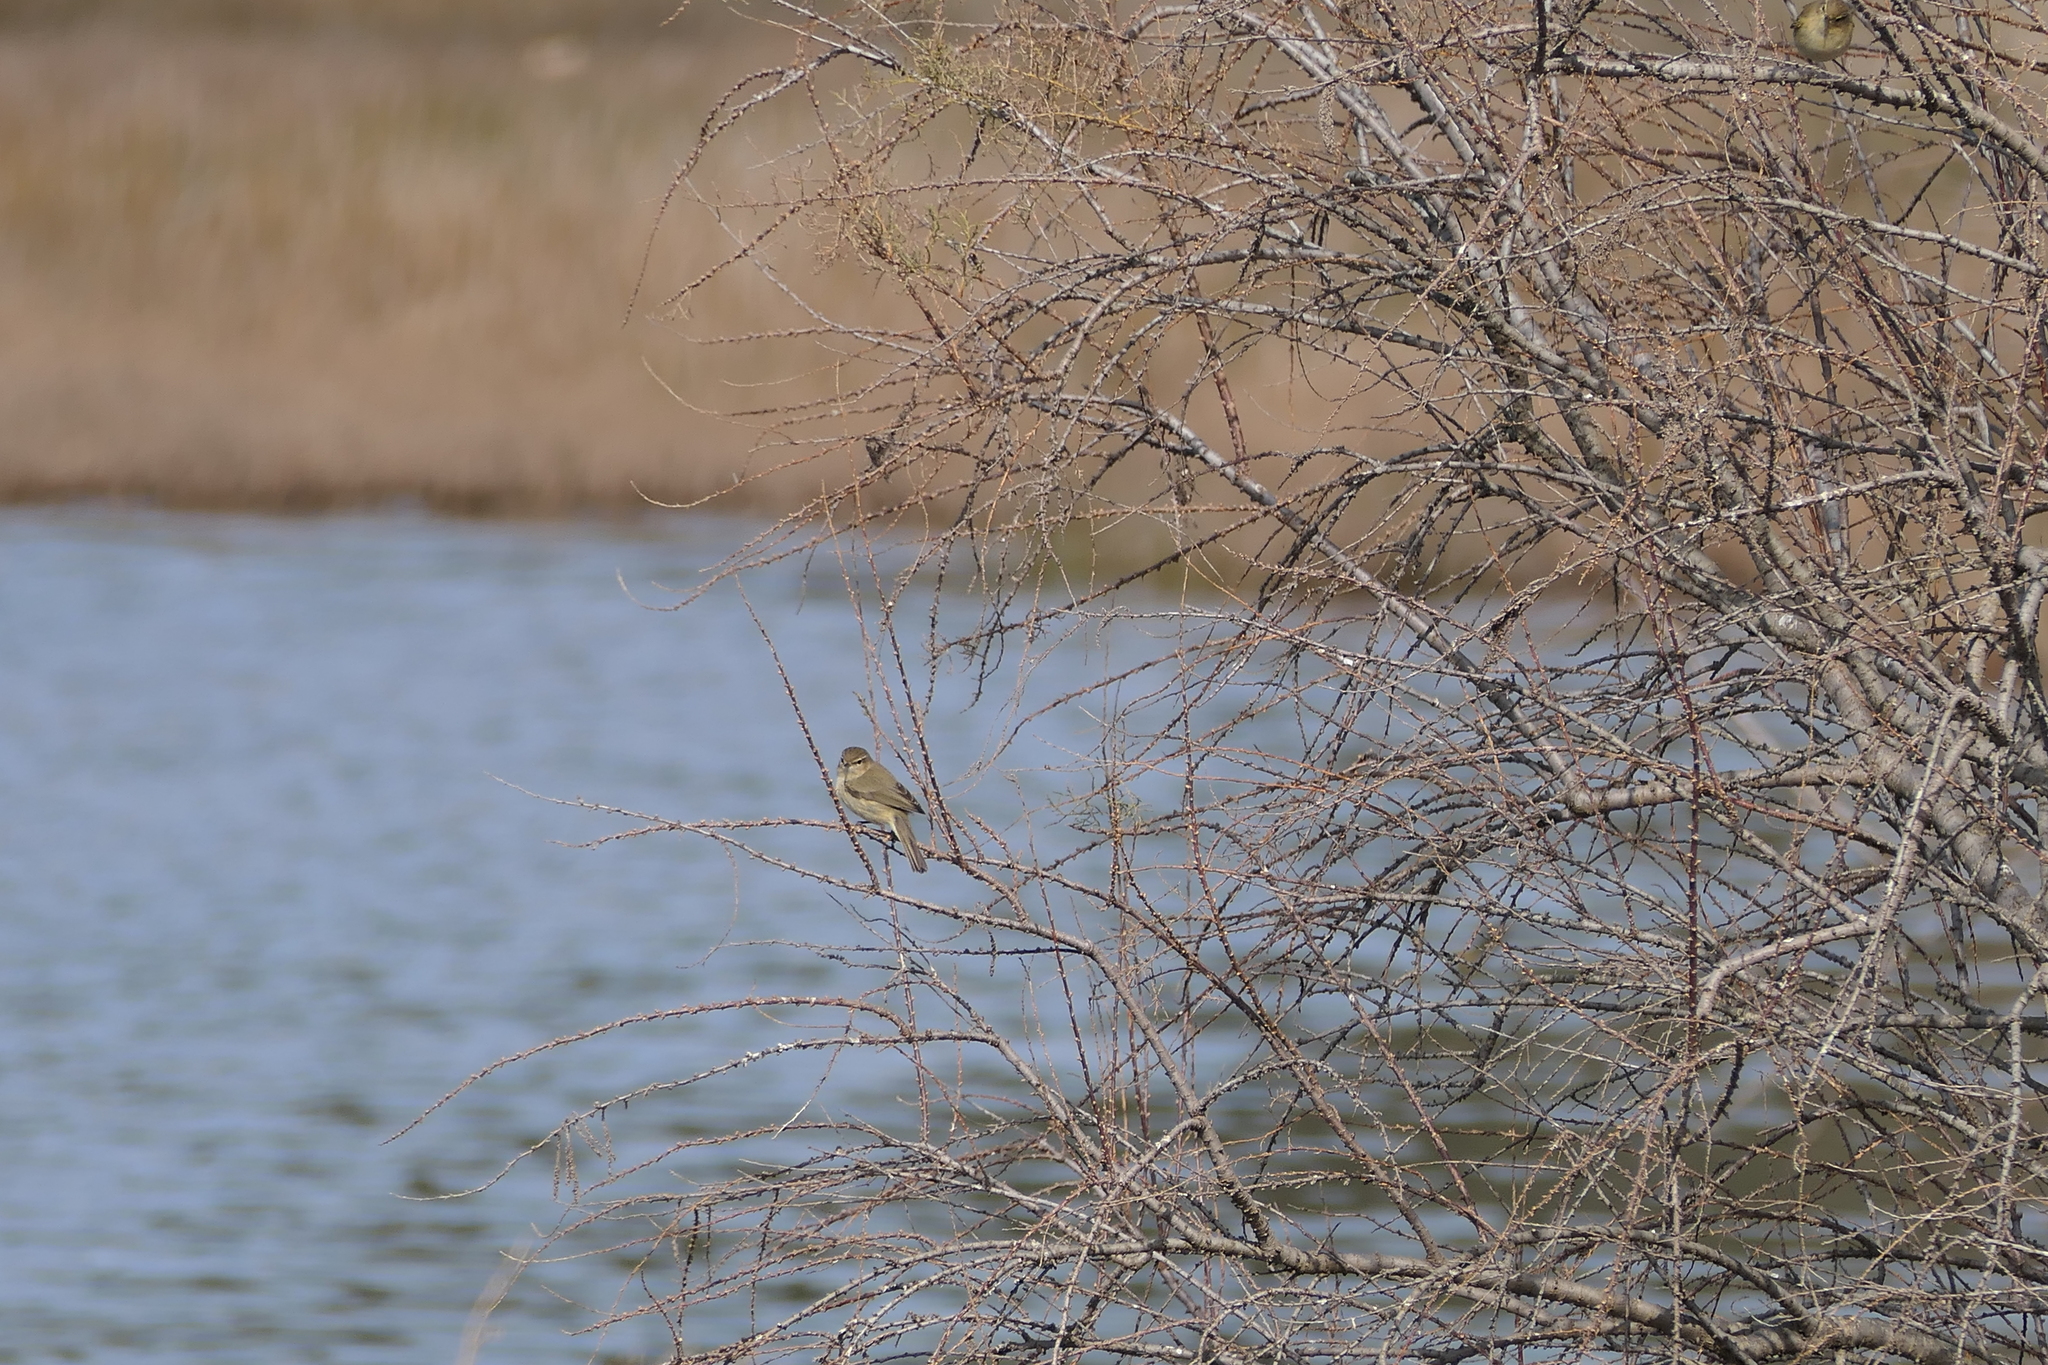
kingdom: Animalia
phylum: Chordata
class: Aves
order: Passeriformes
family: Phylloscopidae
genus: Phylloscopus
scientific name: Phylloscopus collybita
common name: Common chiffchaff
